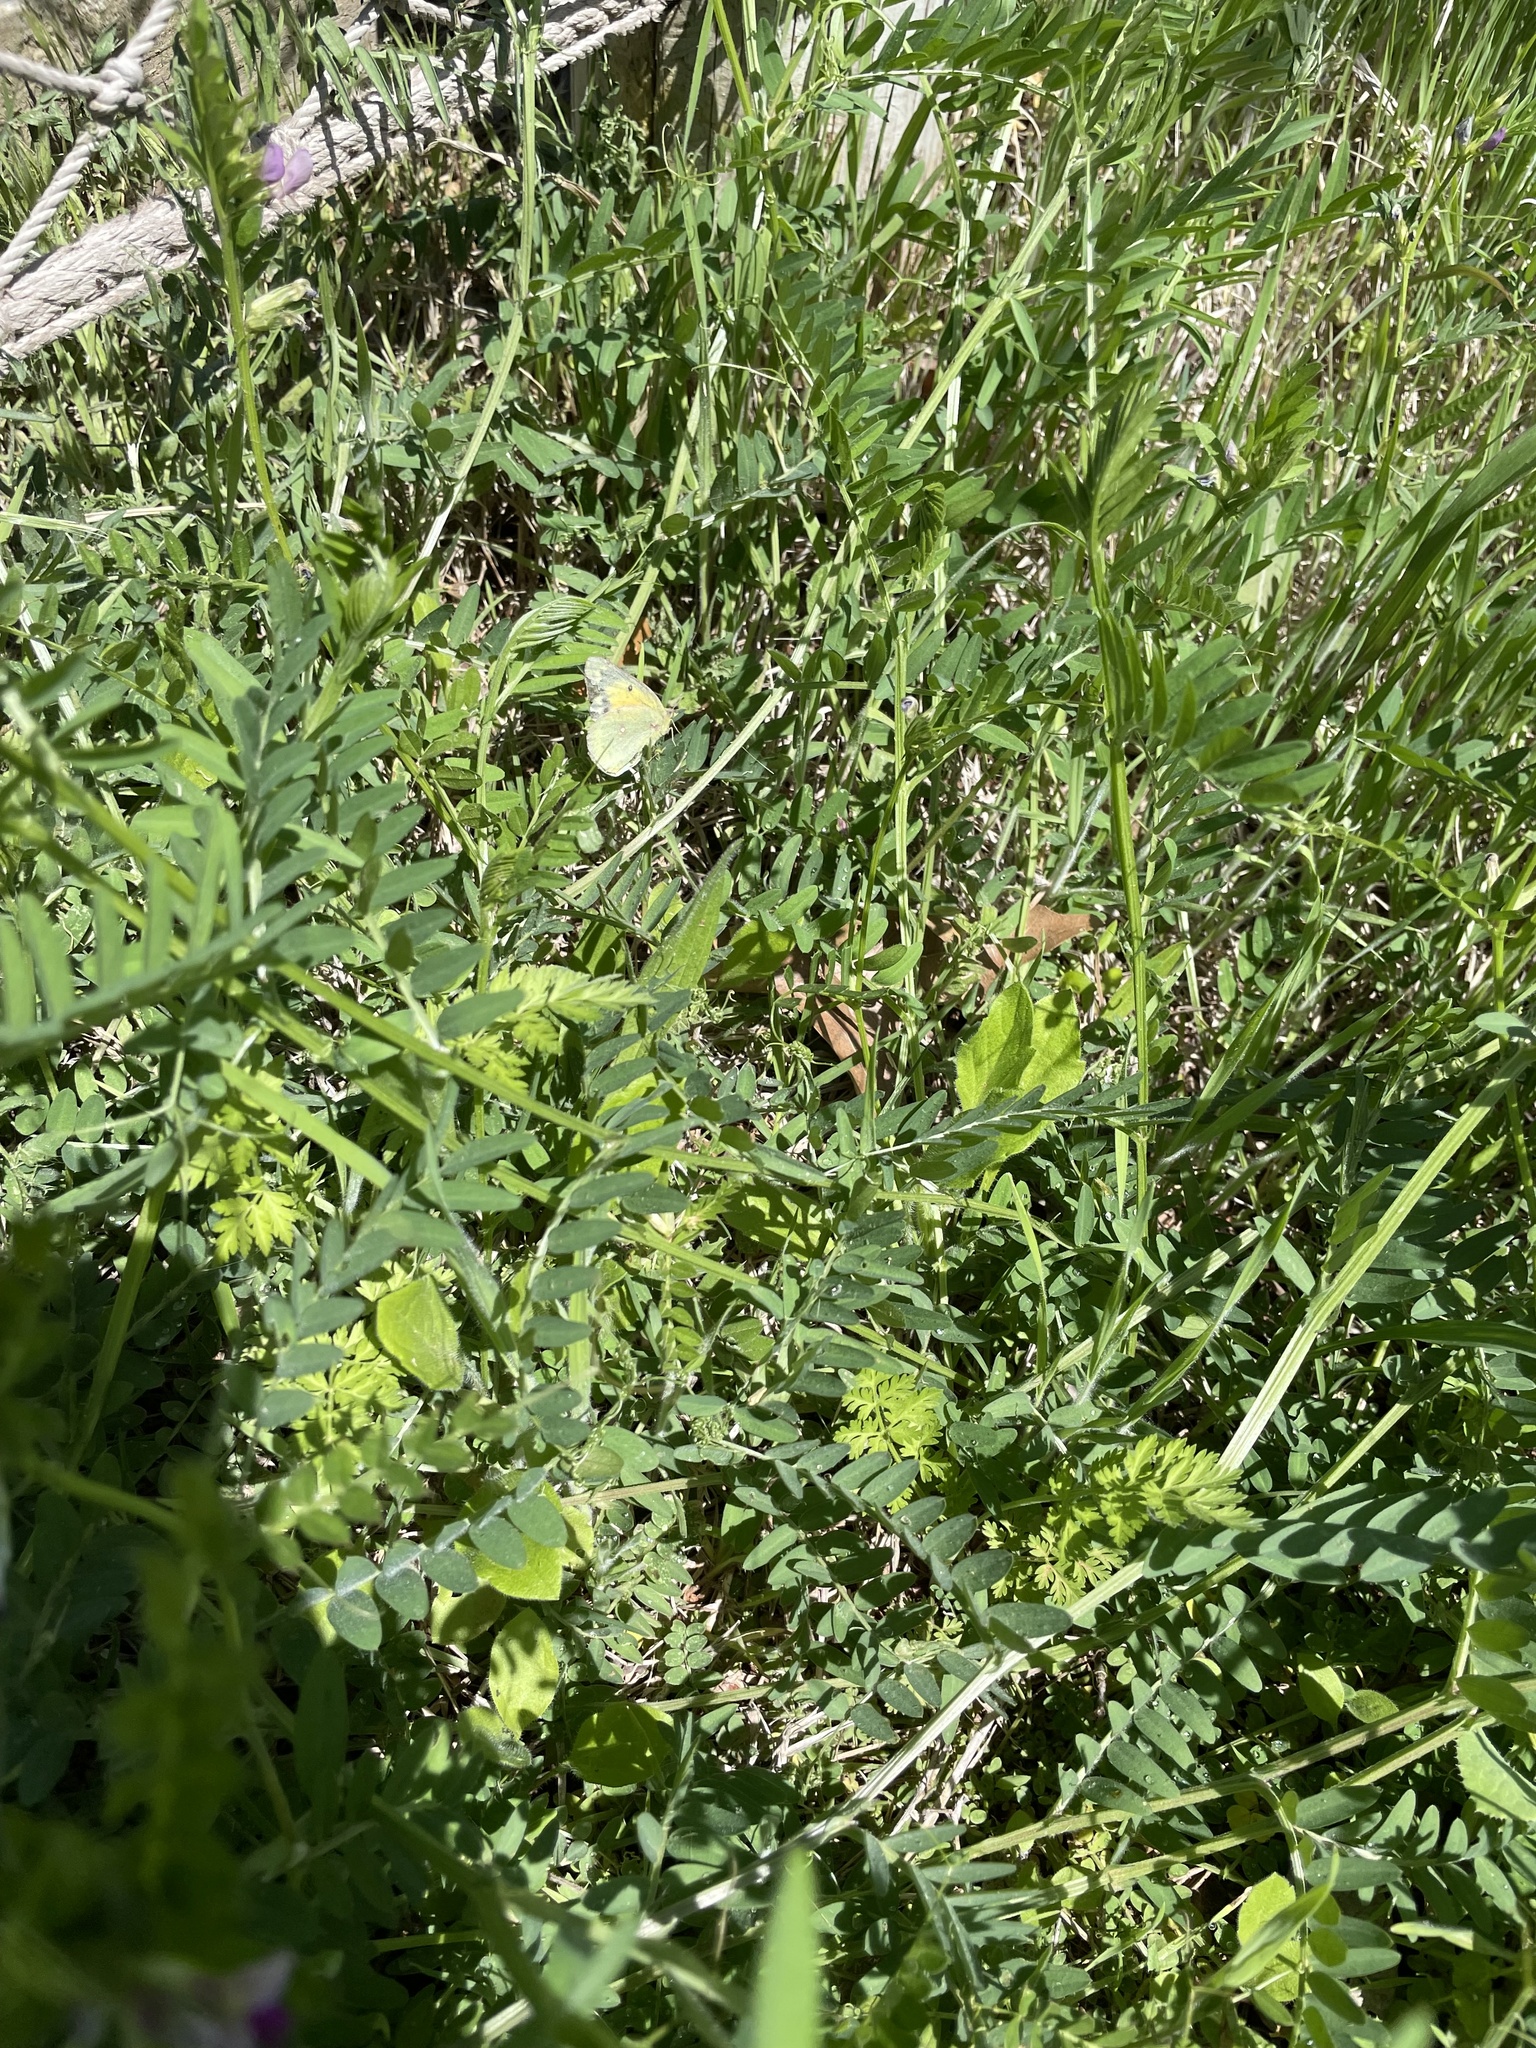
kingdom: Animalia
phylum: Arthropoda
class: Insecta
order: Lepidoptera
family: Pieridae
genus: Colias
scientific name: Colias eurytheme
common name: Alfalfa butterfly
